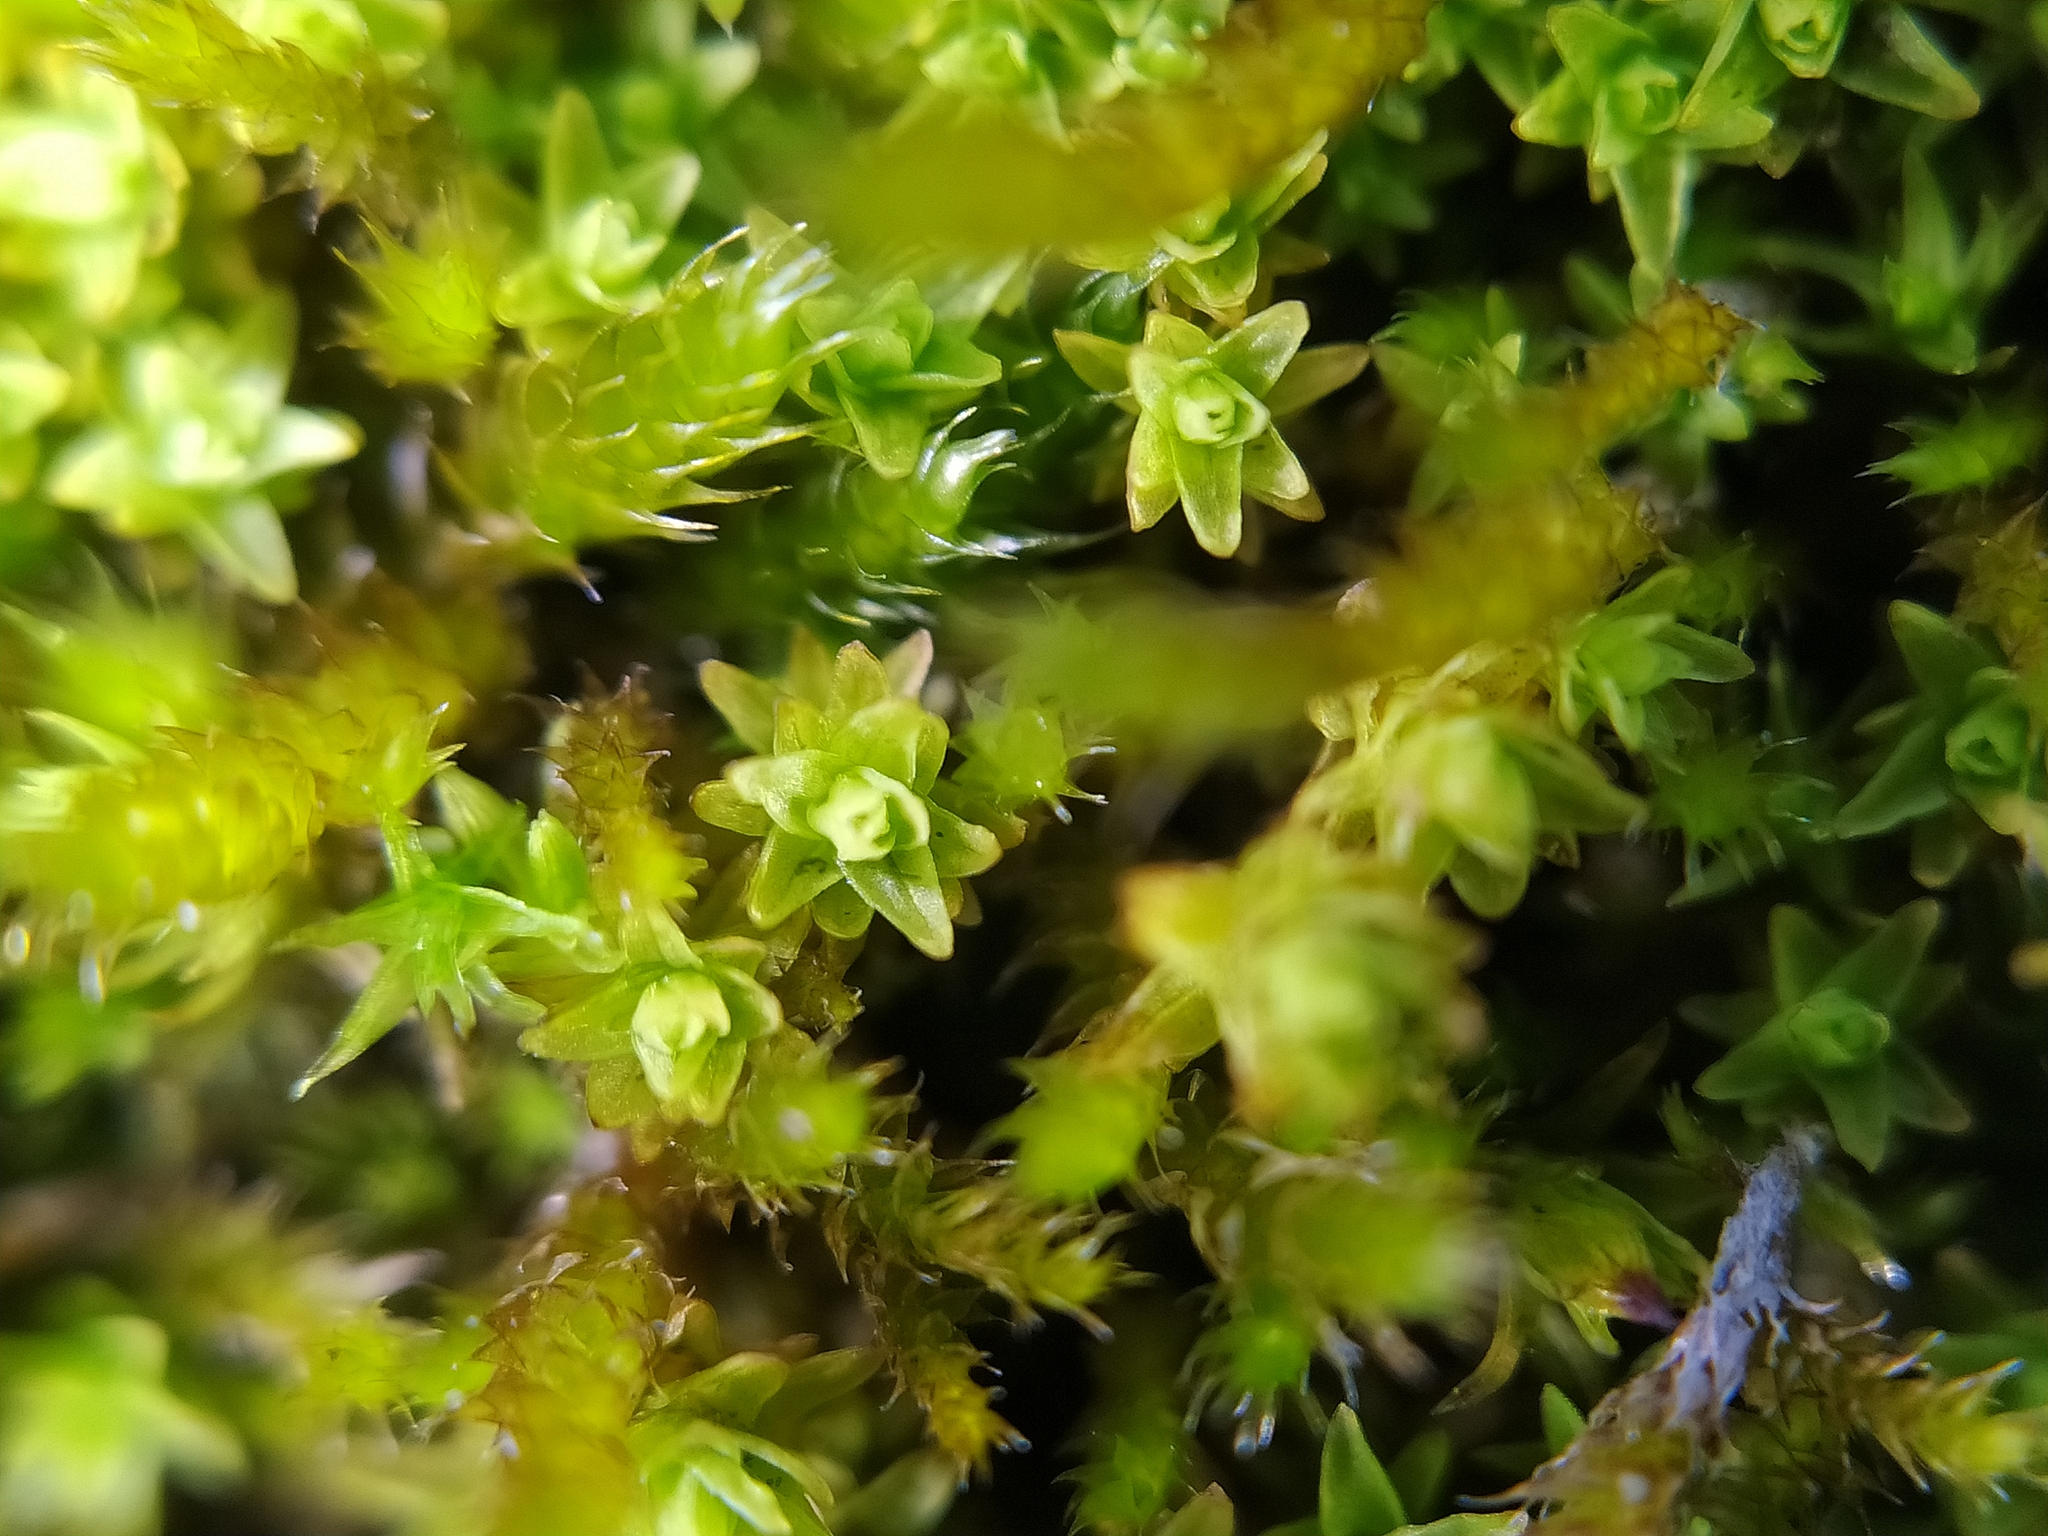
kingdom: Plantae
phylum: Bryophyta
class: Bryopsida
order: Orthotrichales
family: Orthotrichaceae
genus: Nyholmiella
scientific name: Nyholmiella obtusifolia
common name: Blunt-leaved bristle-moss
